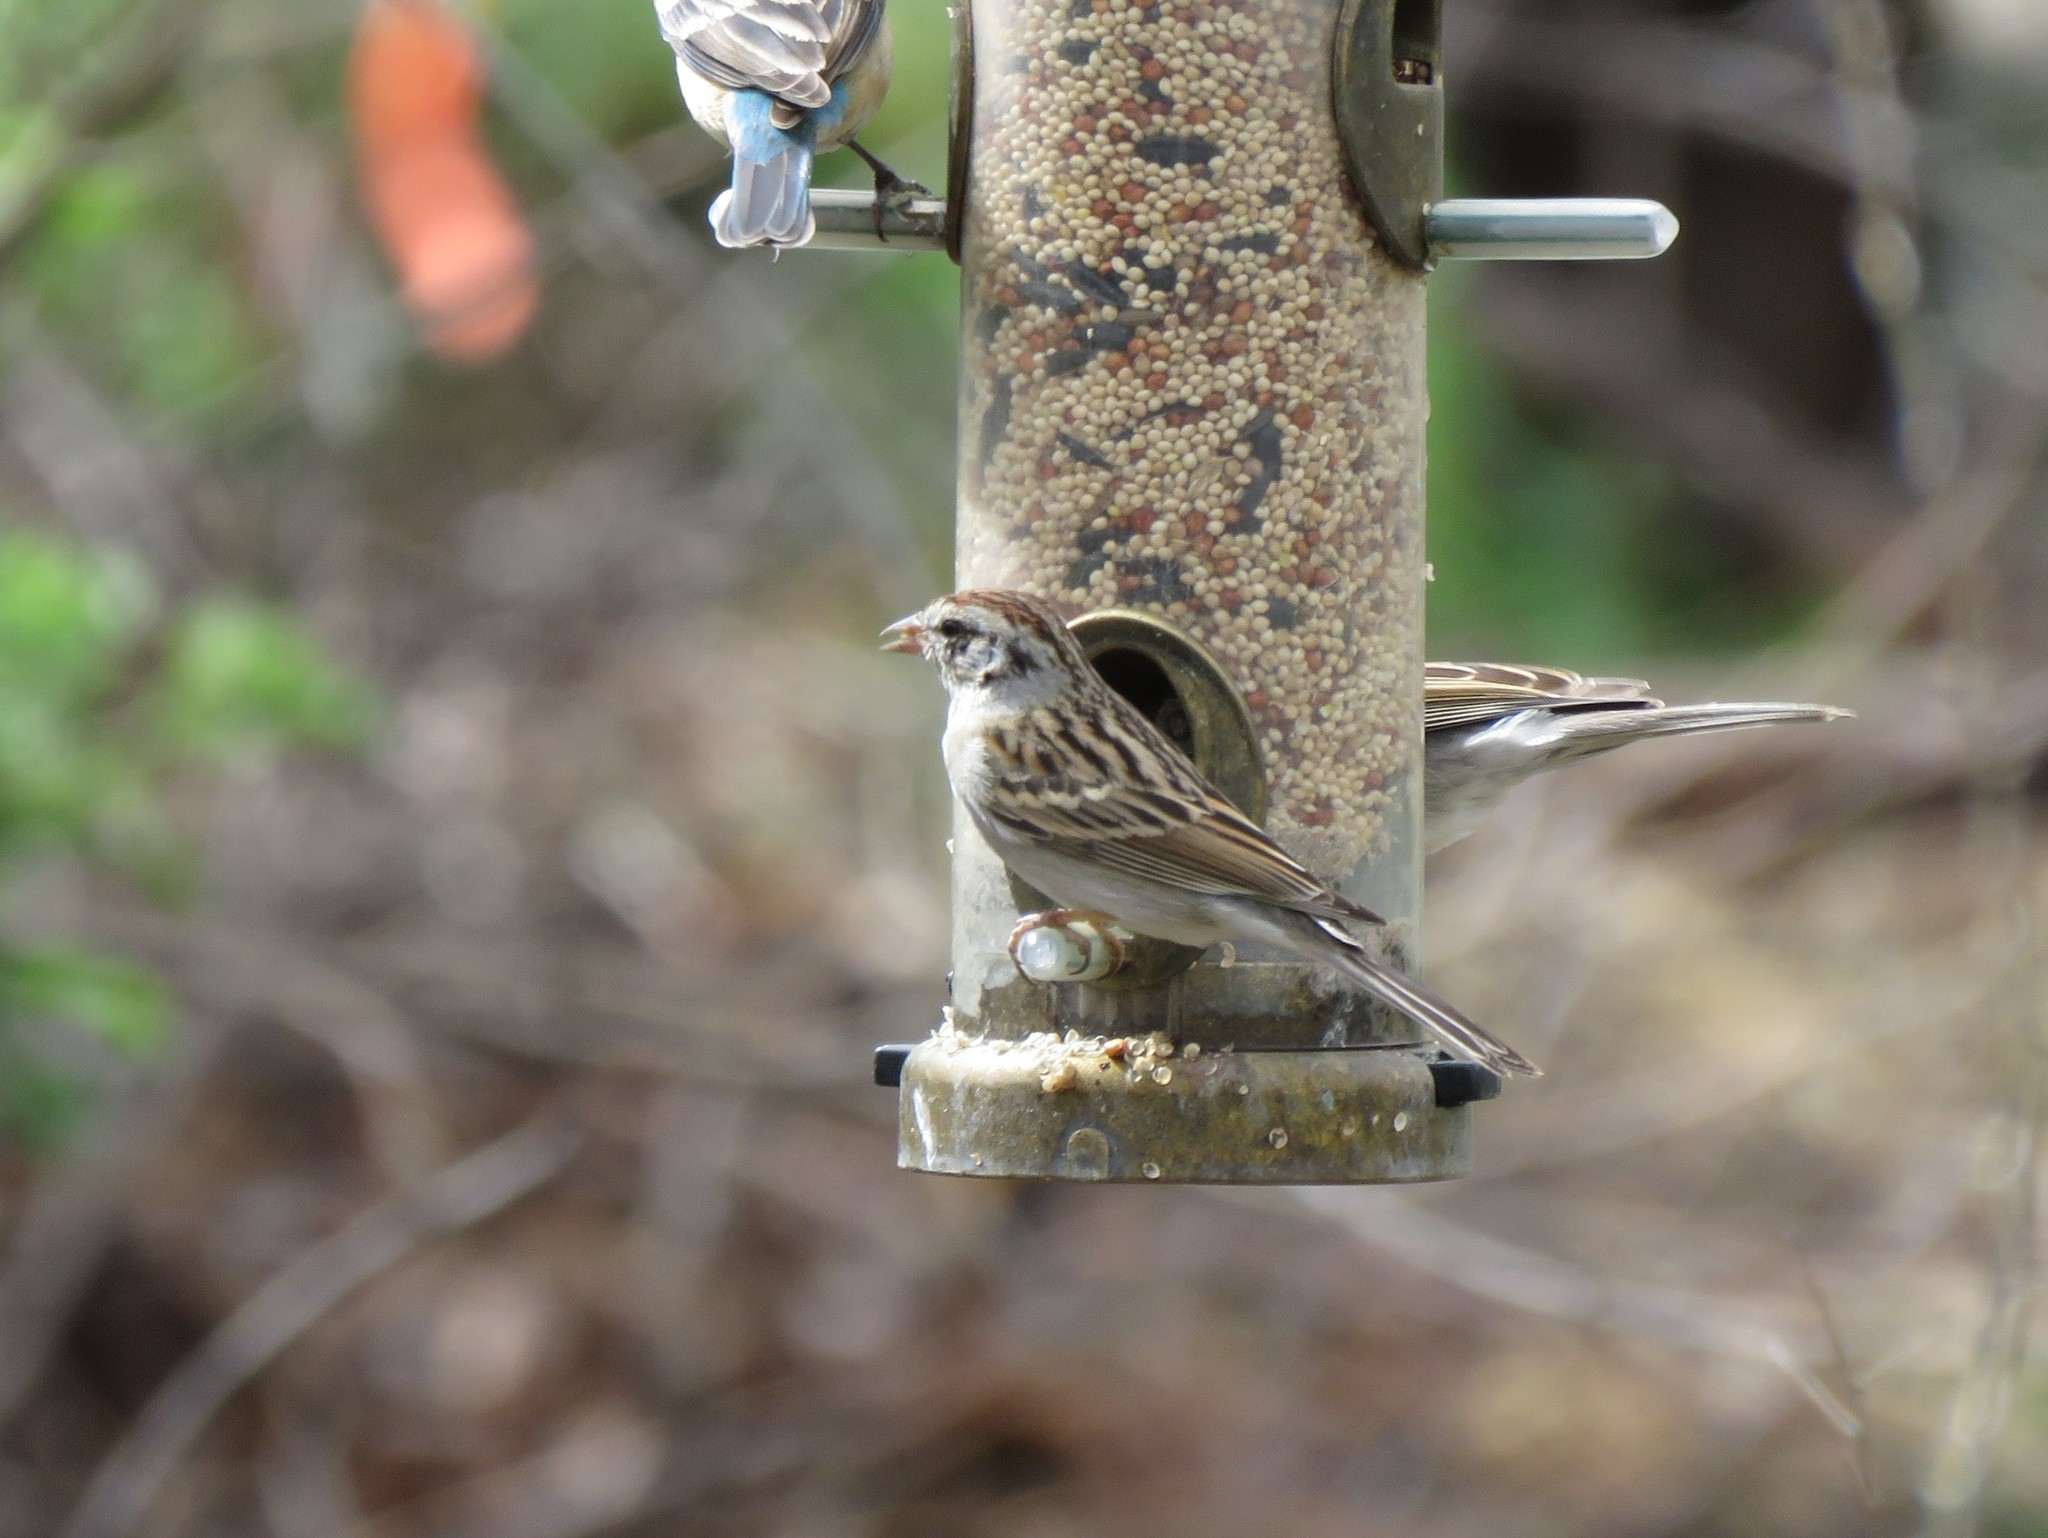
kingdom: Animalia
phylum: Chordata
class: Aves
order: Passeriformes
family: Passerellidae
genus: Spizella
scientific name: Spizella passerina
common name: Chipping sparrow
